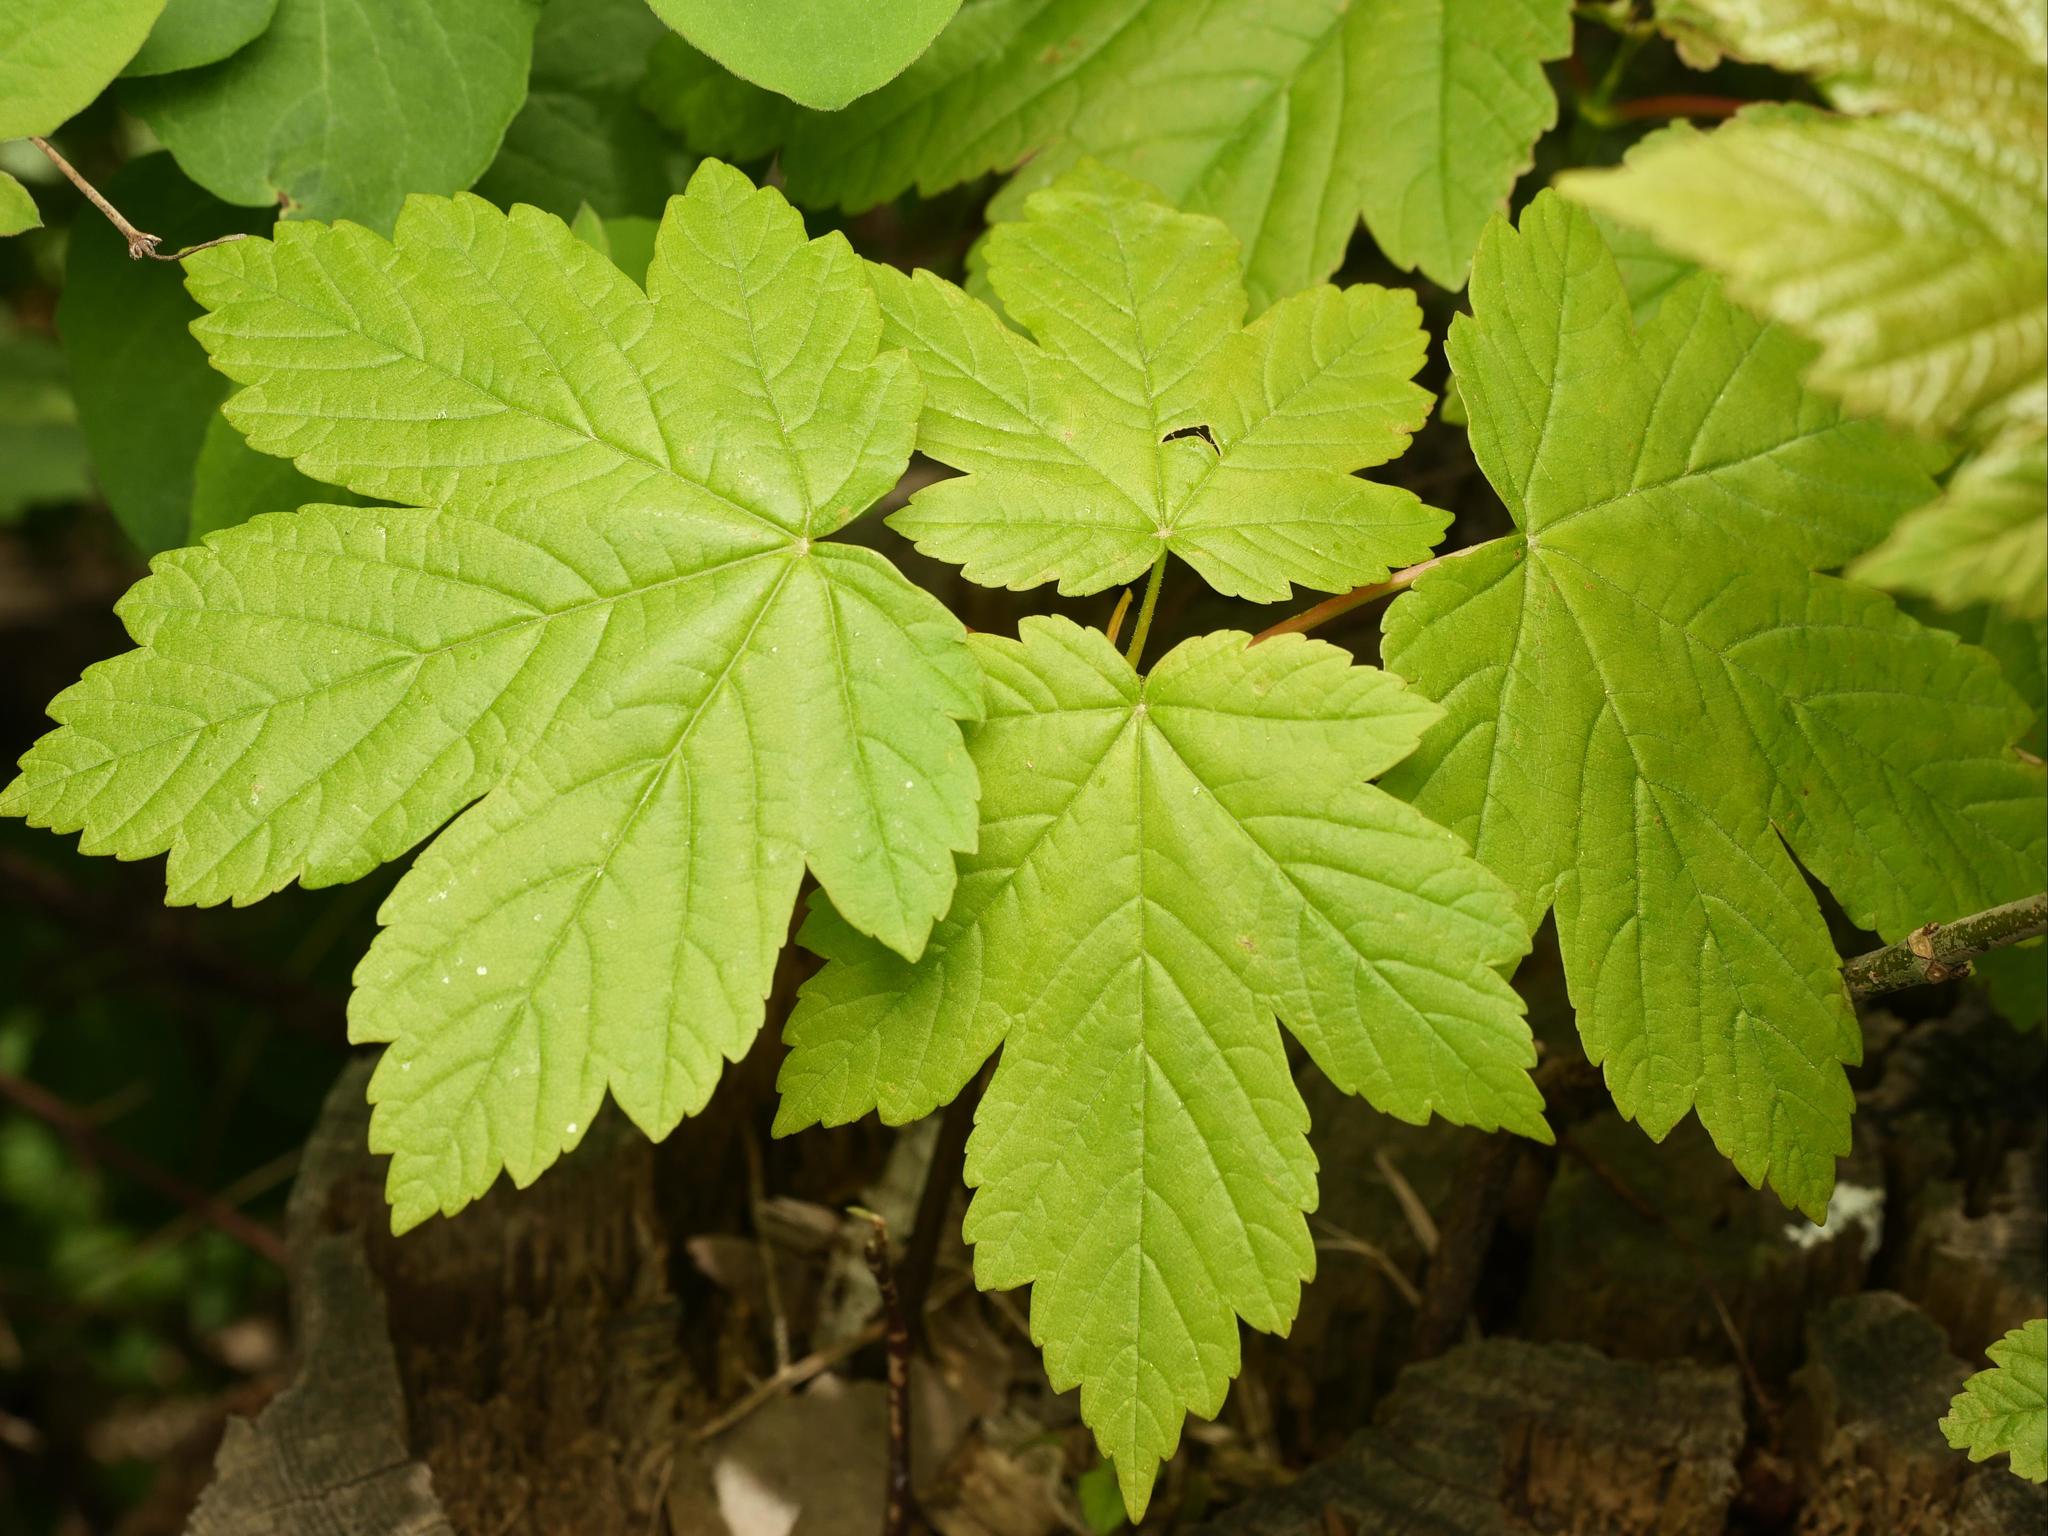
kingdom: Plantae
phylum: Tracheophyta
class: Magnoliopsida
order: Sapindales
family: Sapindaceae
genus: Acer
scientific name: Acer pseudoplatanus
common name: Sycamore
